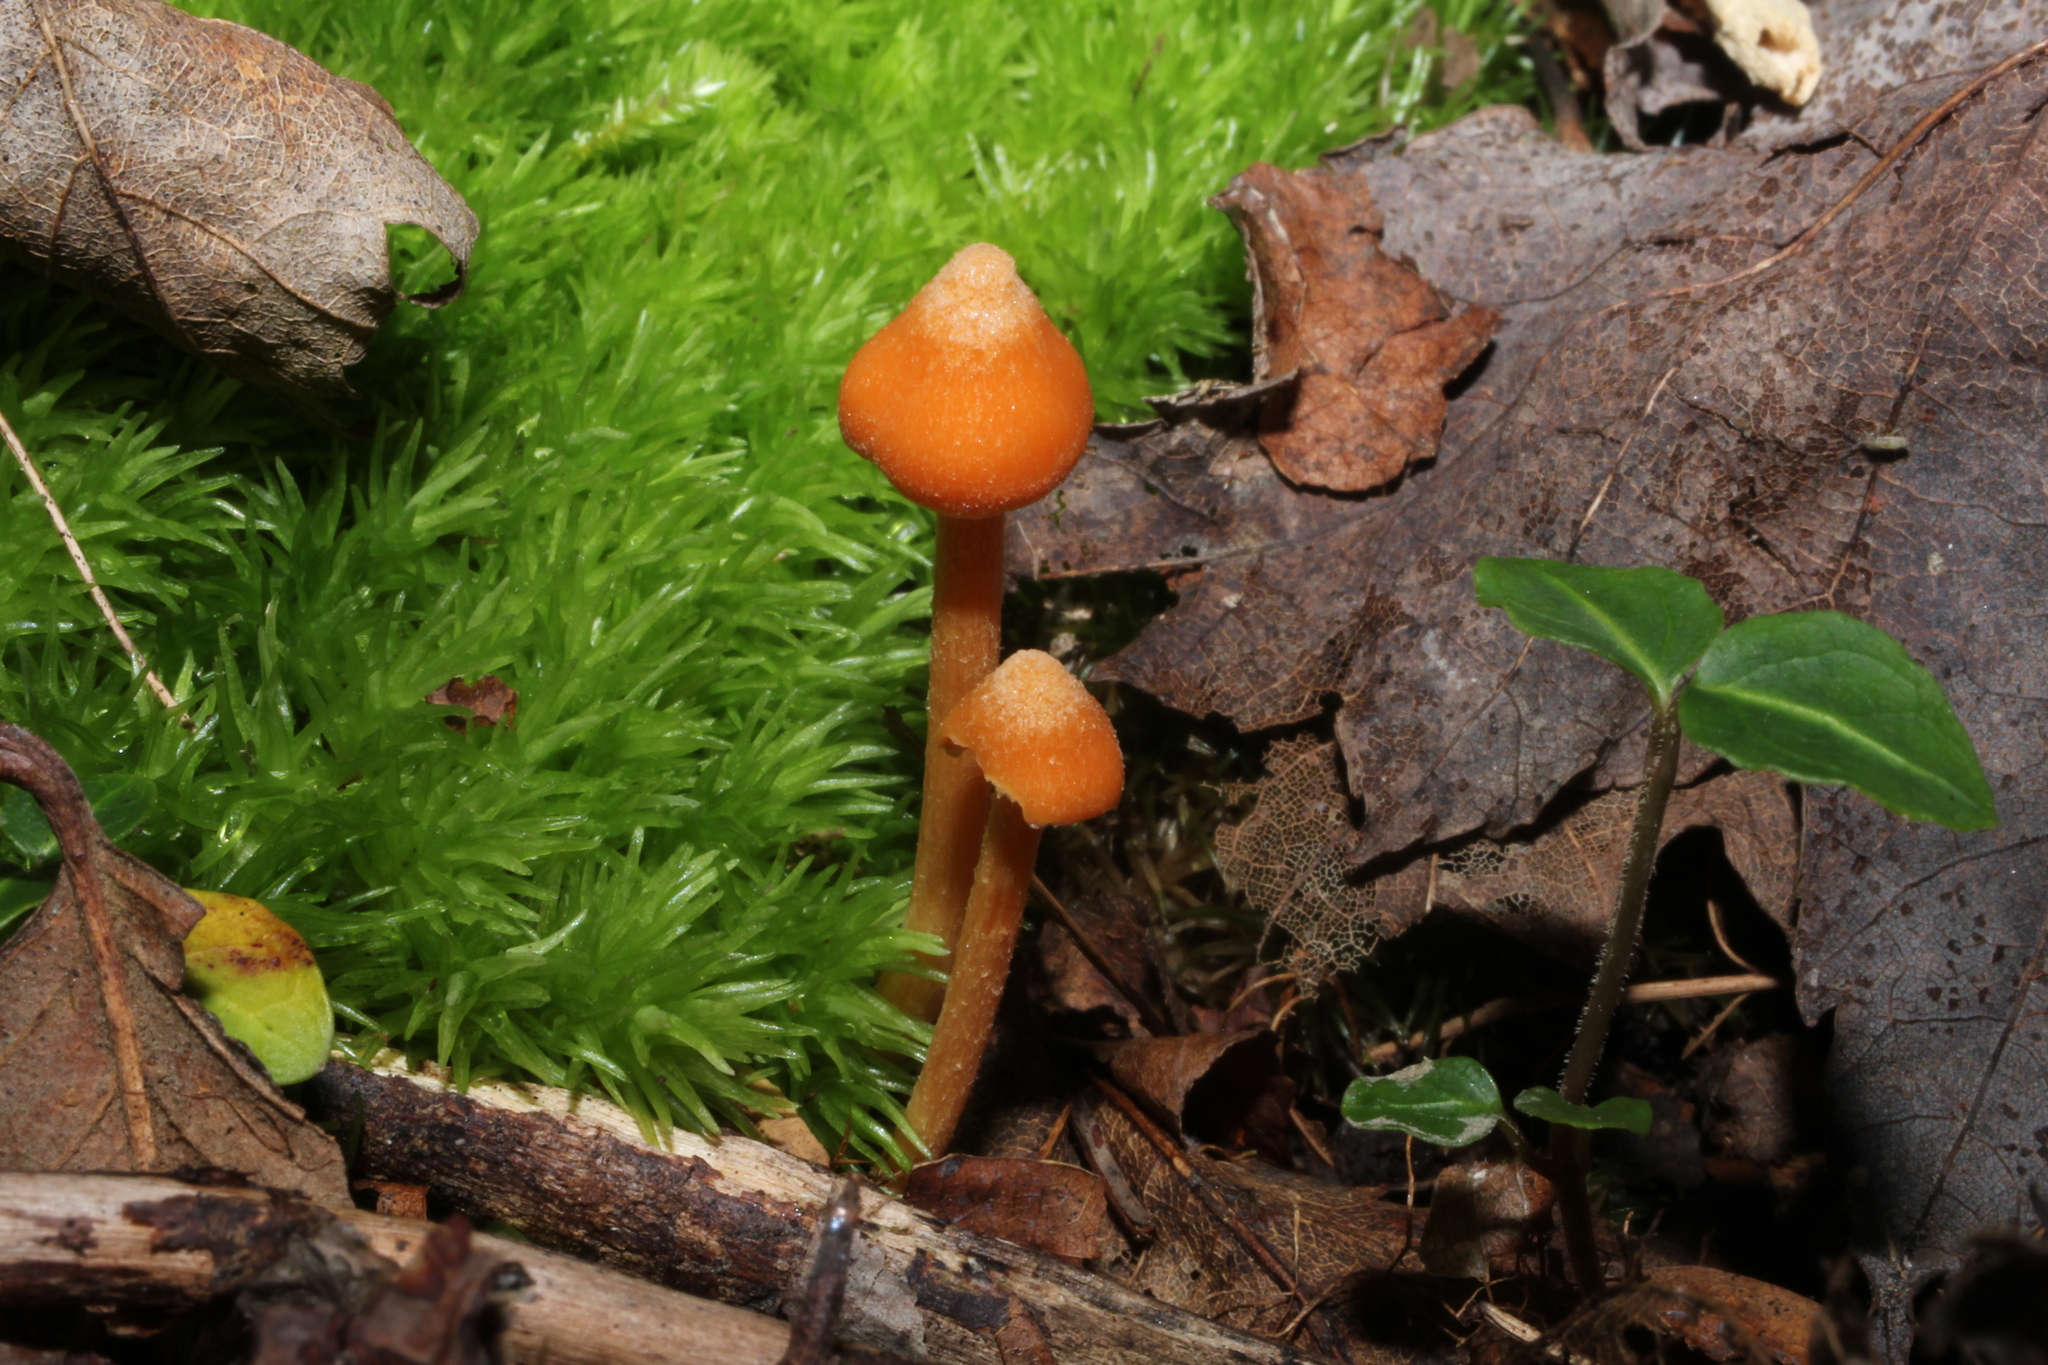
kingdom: Fungi
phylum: Basidiomycota
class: Agaricomycetes
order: Agaricales
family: Entolomataceae
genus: Entoloma
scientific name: Entoloma quadratum
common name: Salmon pinkgill
